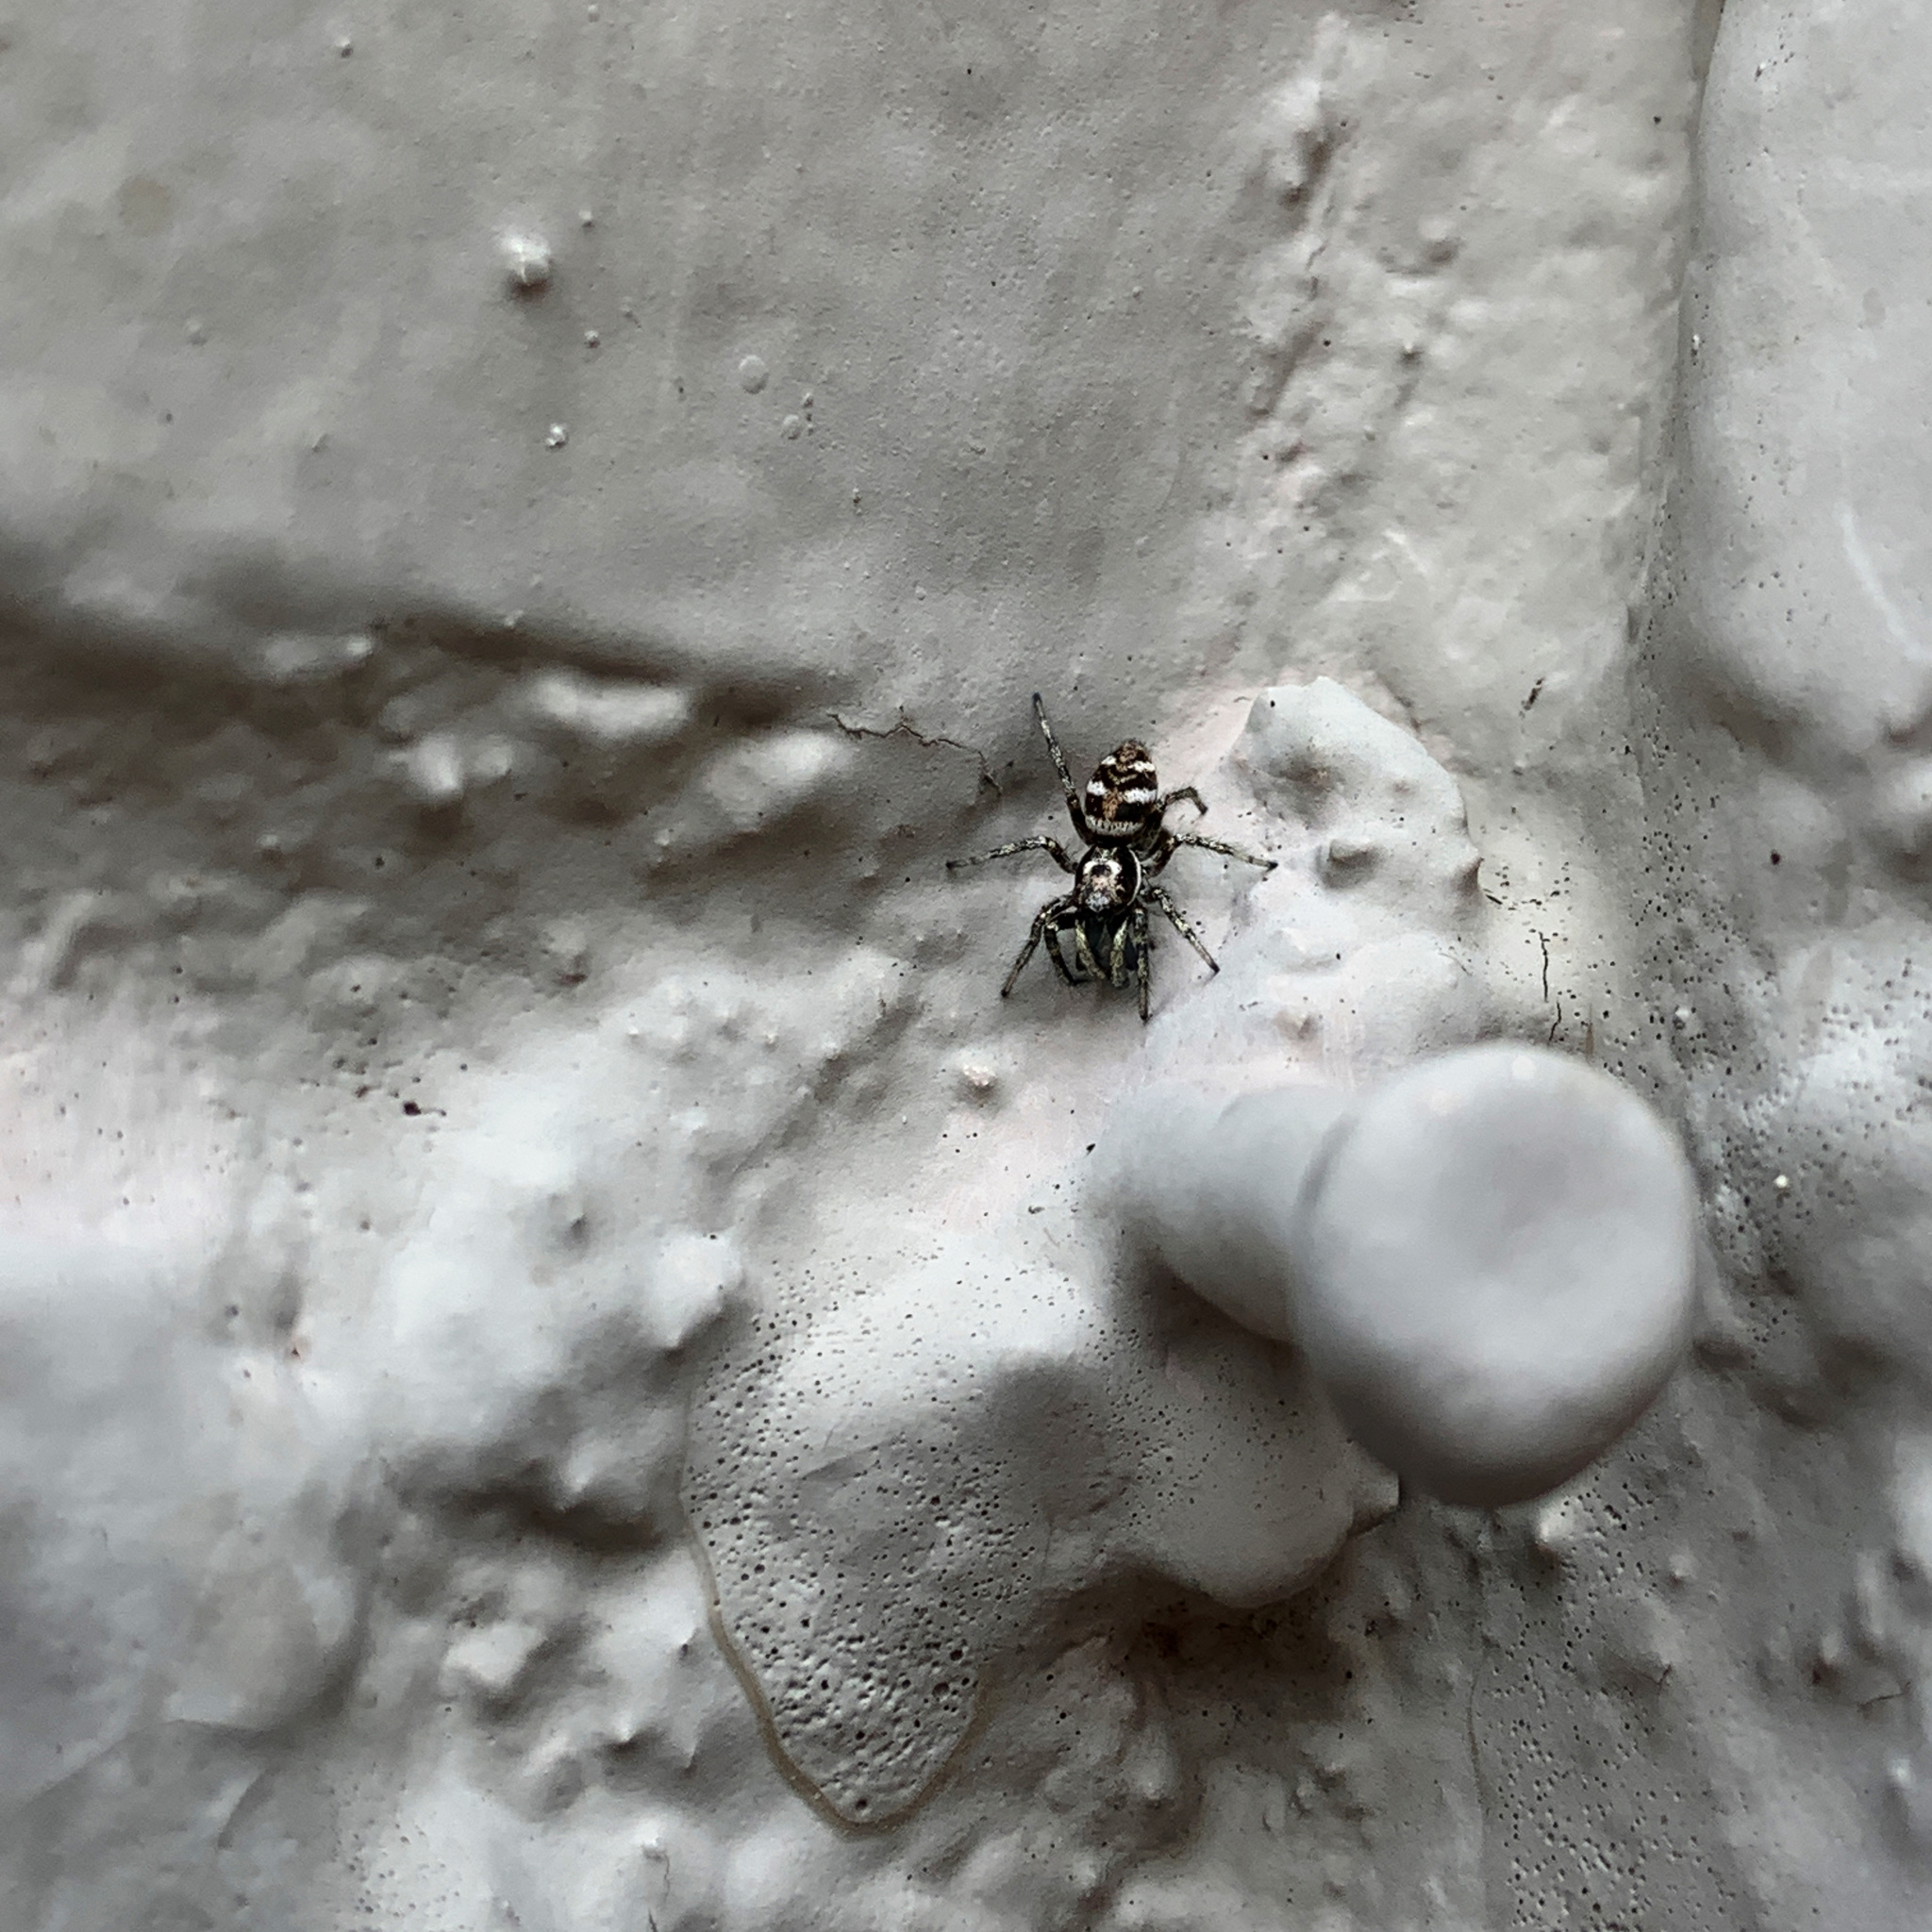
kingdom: Animalia
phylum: Arthropoda
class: Arachnida
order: Araneae
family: Salticidae
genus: Salticus
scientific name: Salticus scenicus
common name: Zebra jumper
